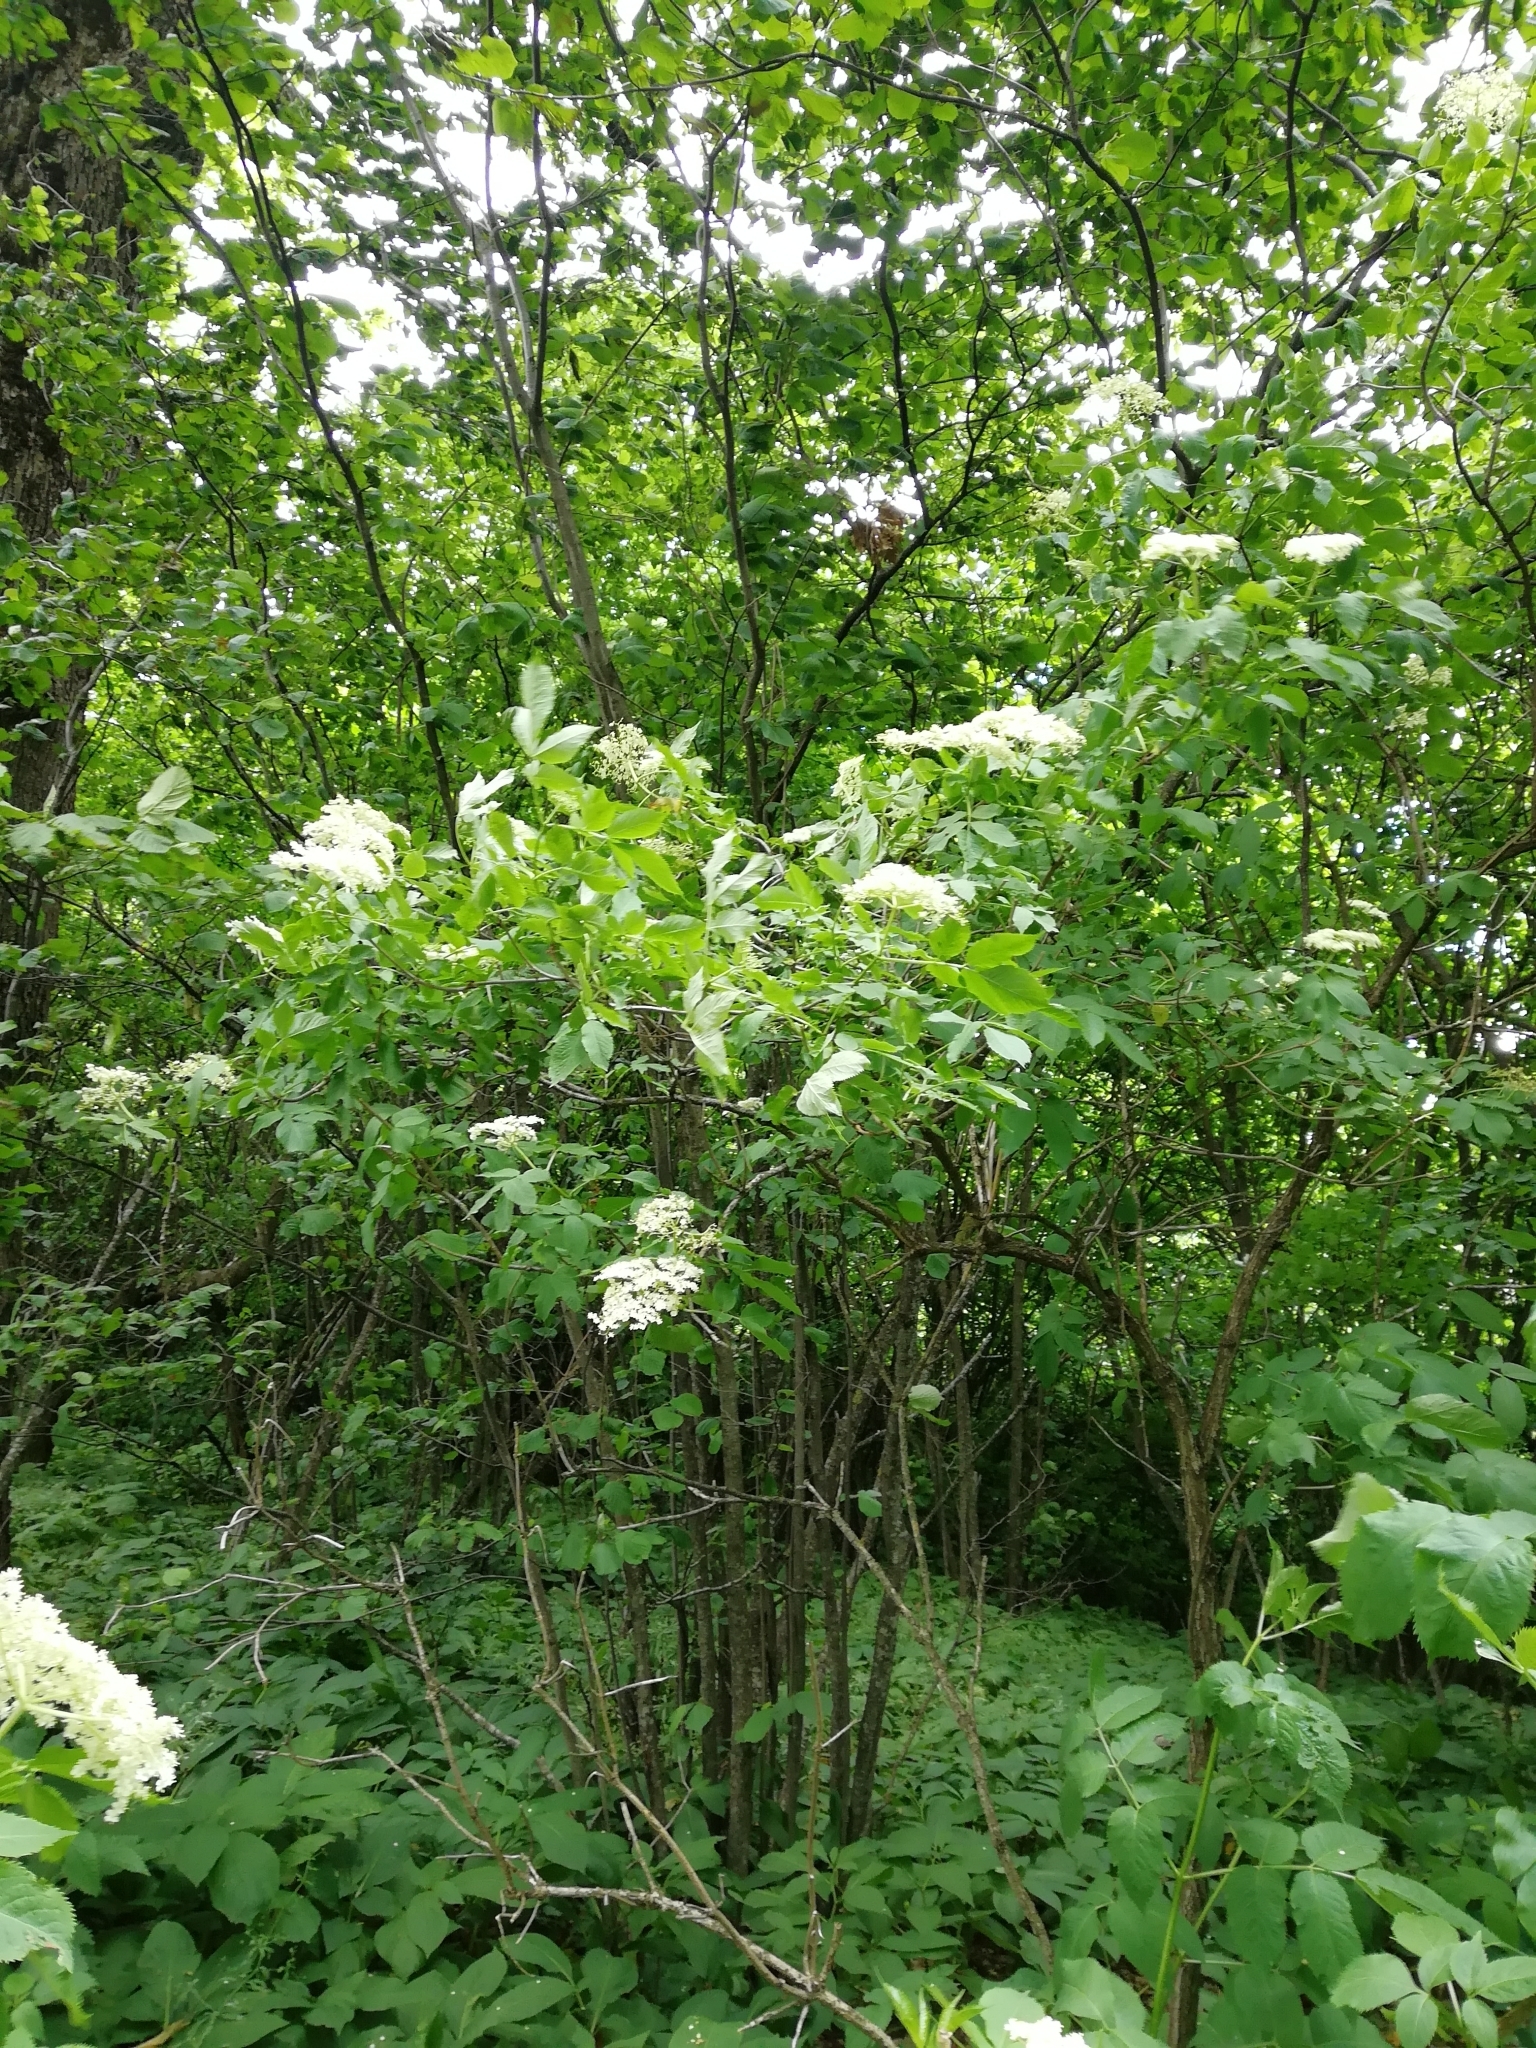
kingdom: Plantae
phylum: Tracheophyta
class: Magnoliopsida
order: Dipsacales
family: Viburnaceae
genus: Sambucus
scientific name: Sambucus nigra
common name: Elder
